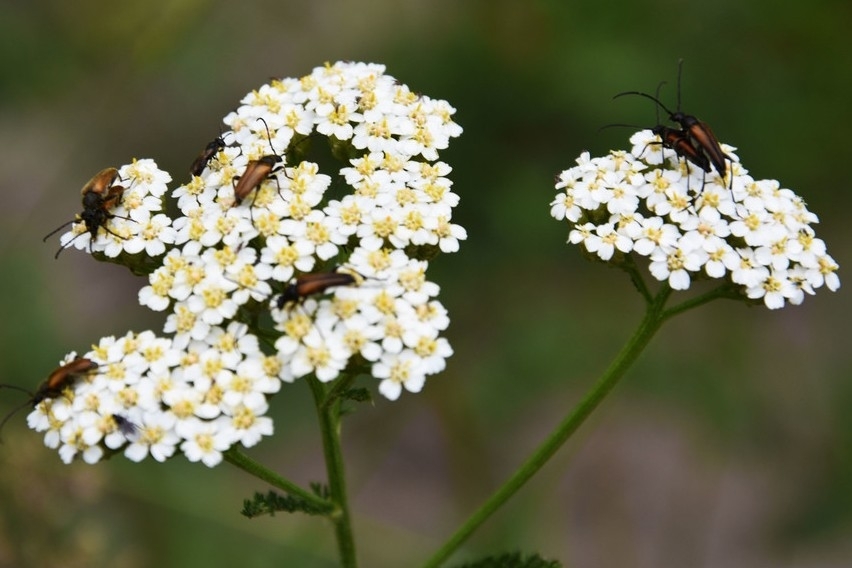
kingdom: Animalia
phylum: Arthropoda
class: Insecta
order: Coleoptera
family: Cerambycidae
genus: Pseudovadonia
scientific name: Pseudovadonia livida
